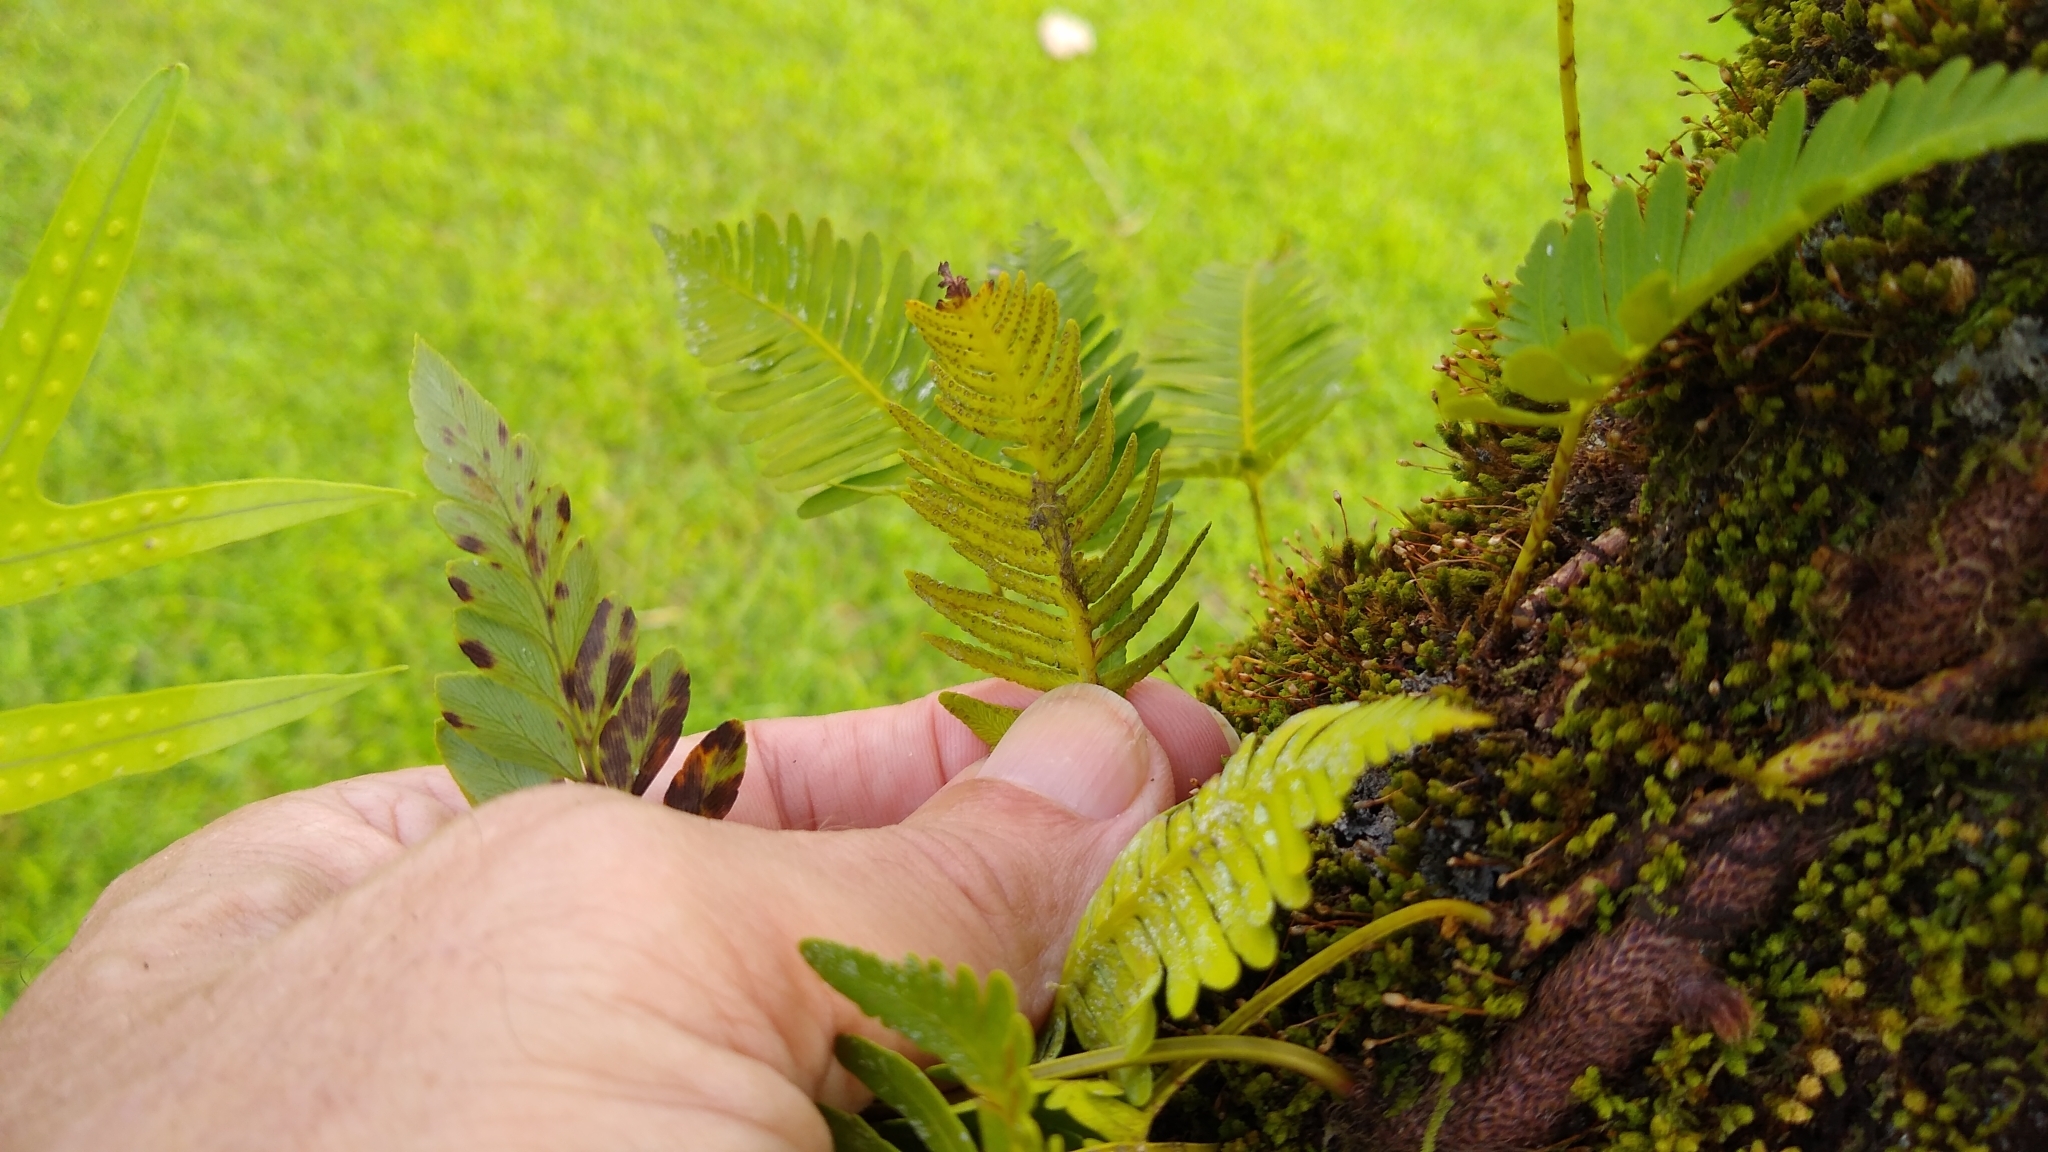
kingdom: Plantae
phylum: Tracheophyta
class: Polypodiopsida
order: Polypodiales
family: Davalliaceae
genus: Davallia
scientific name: Davallia pectinata
